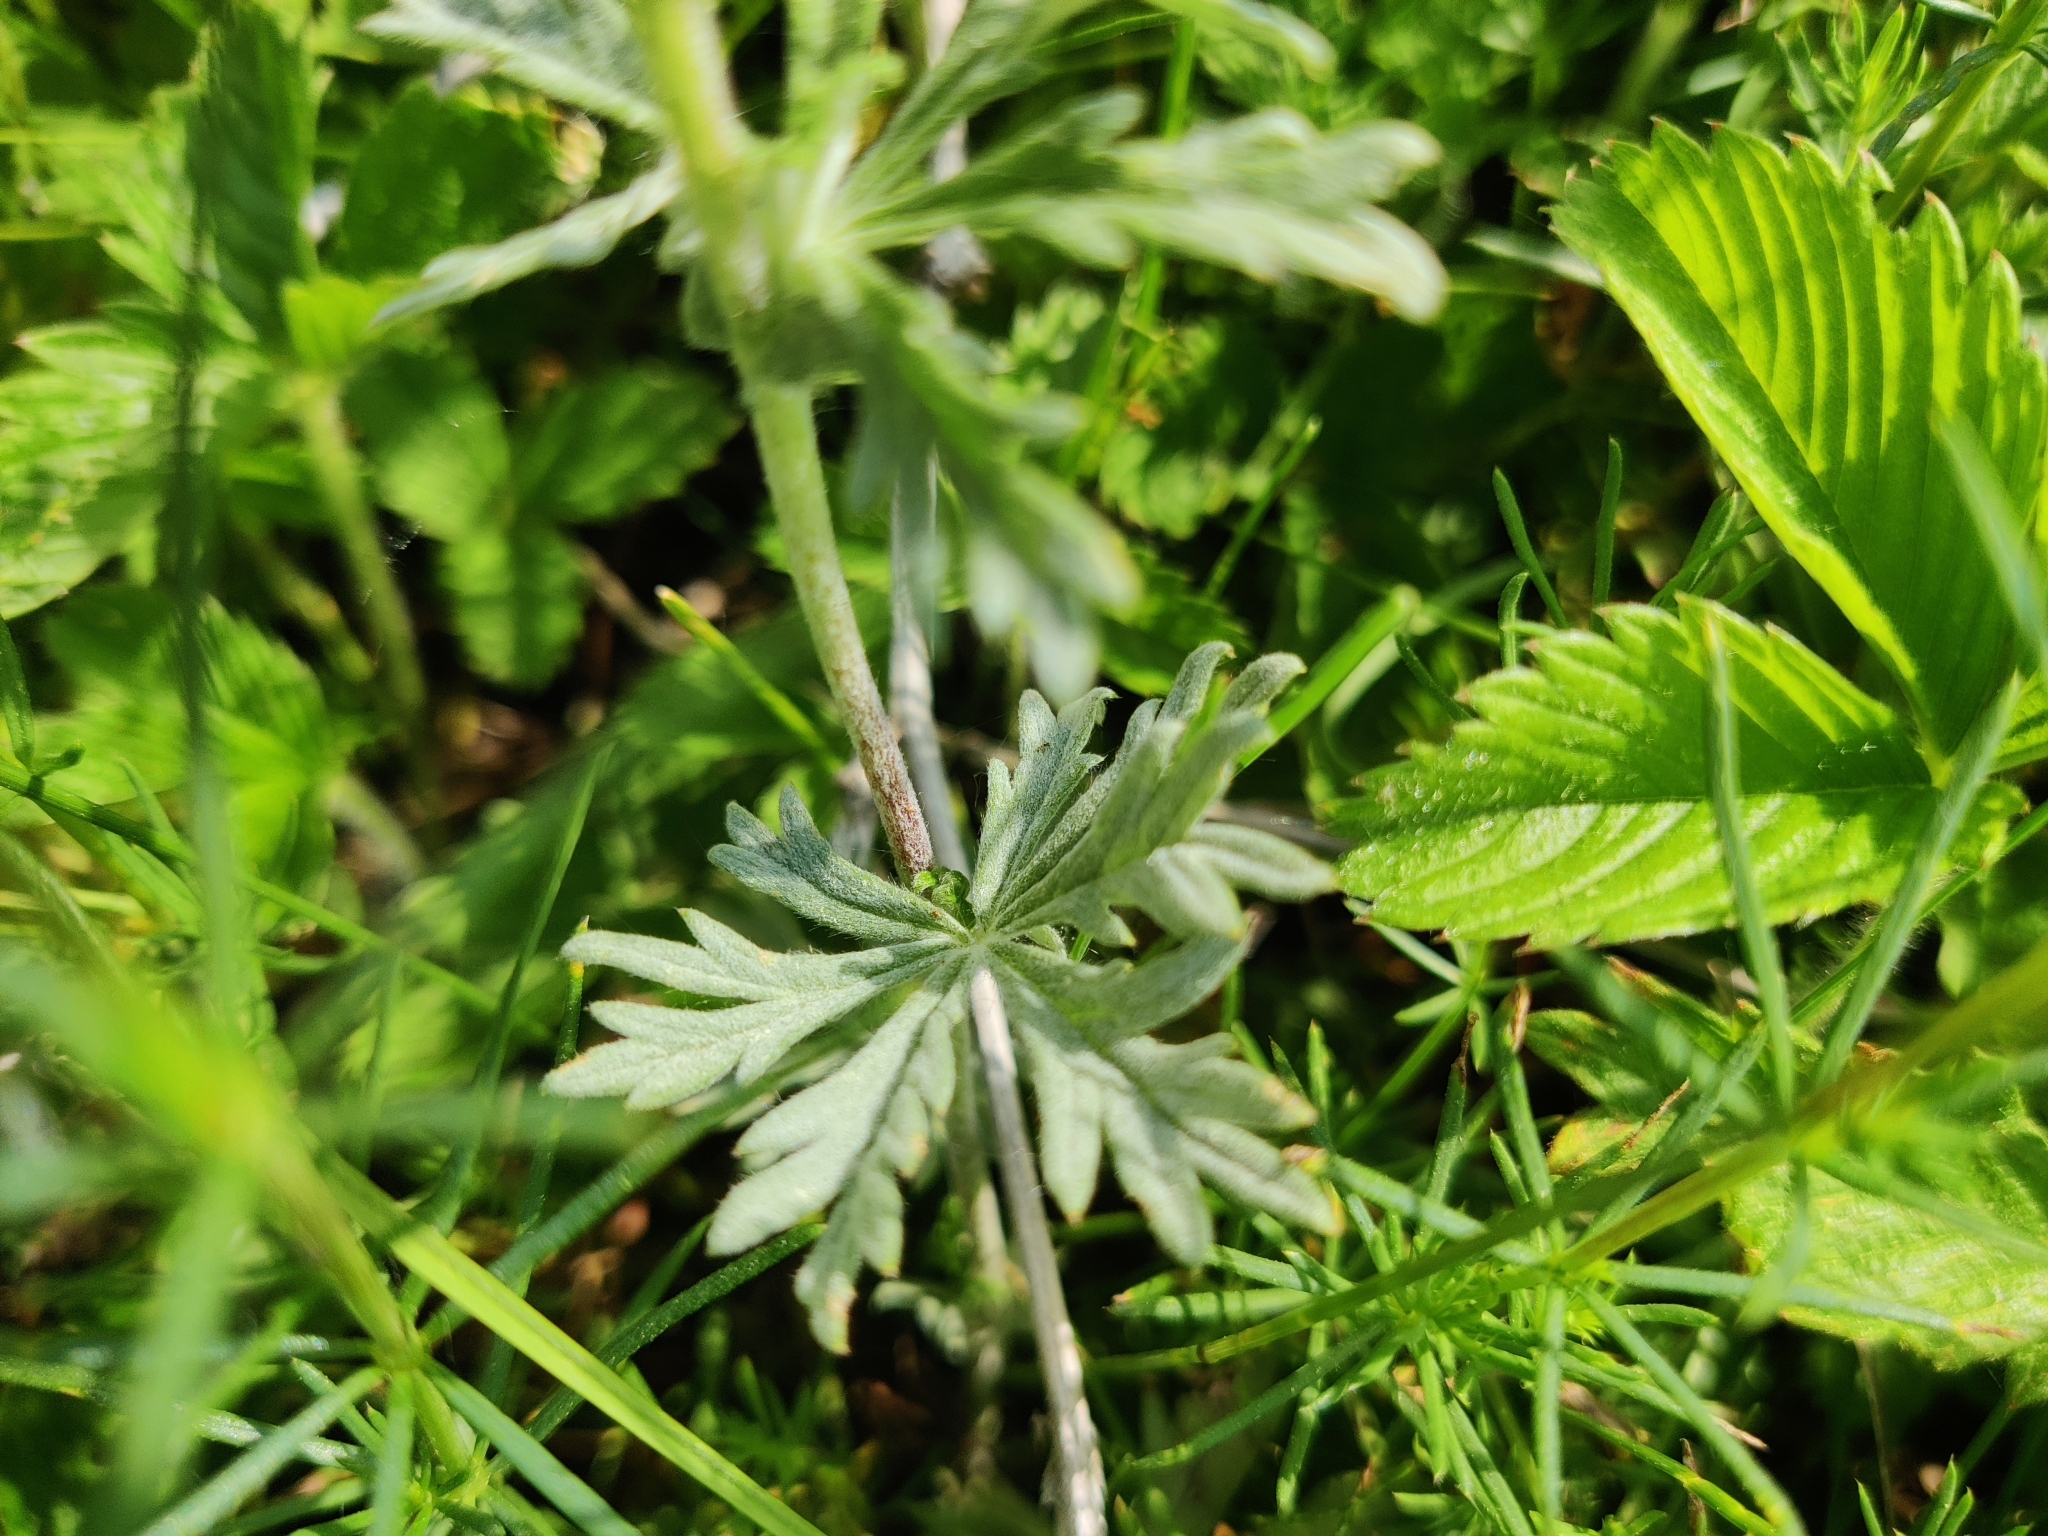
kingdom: Plantae
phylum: Tracheophyta
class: Magnoliopsida
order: Rosales
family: Rosaceae
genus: Potentilla
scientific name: Potentilla argentea
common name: Hoary cinquefoil
